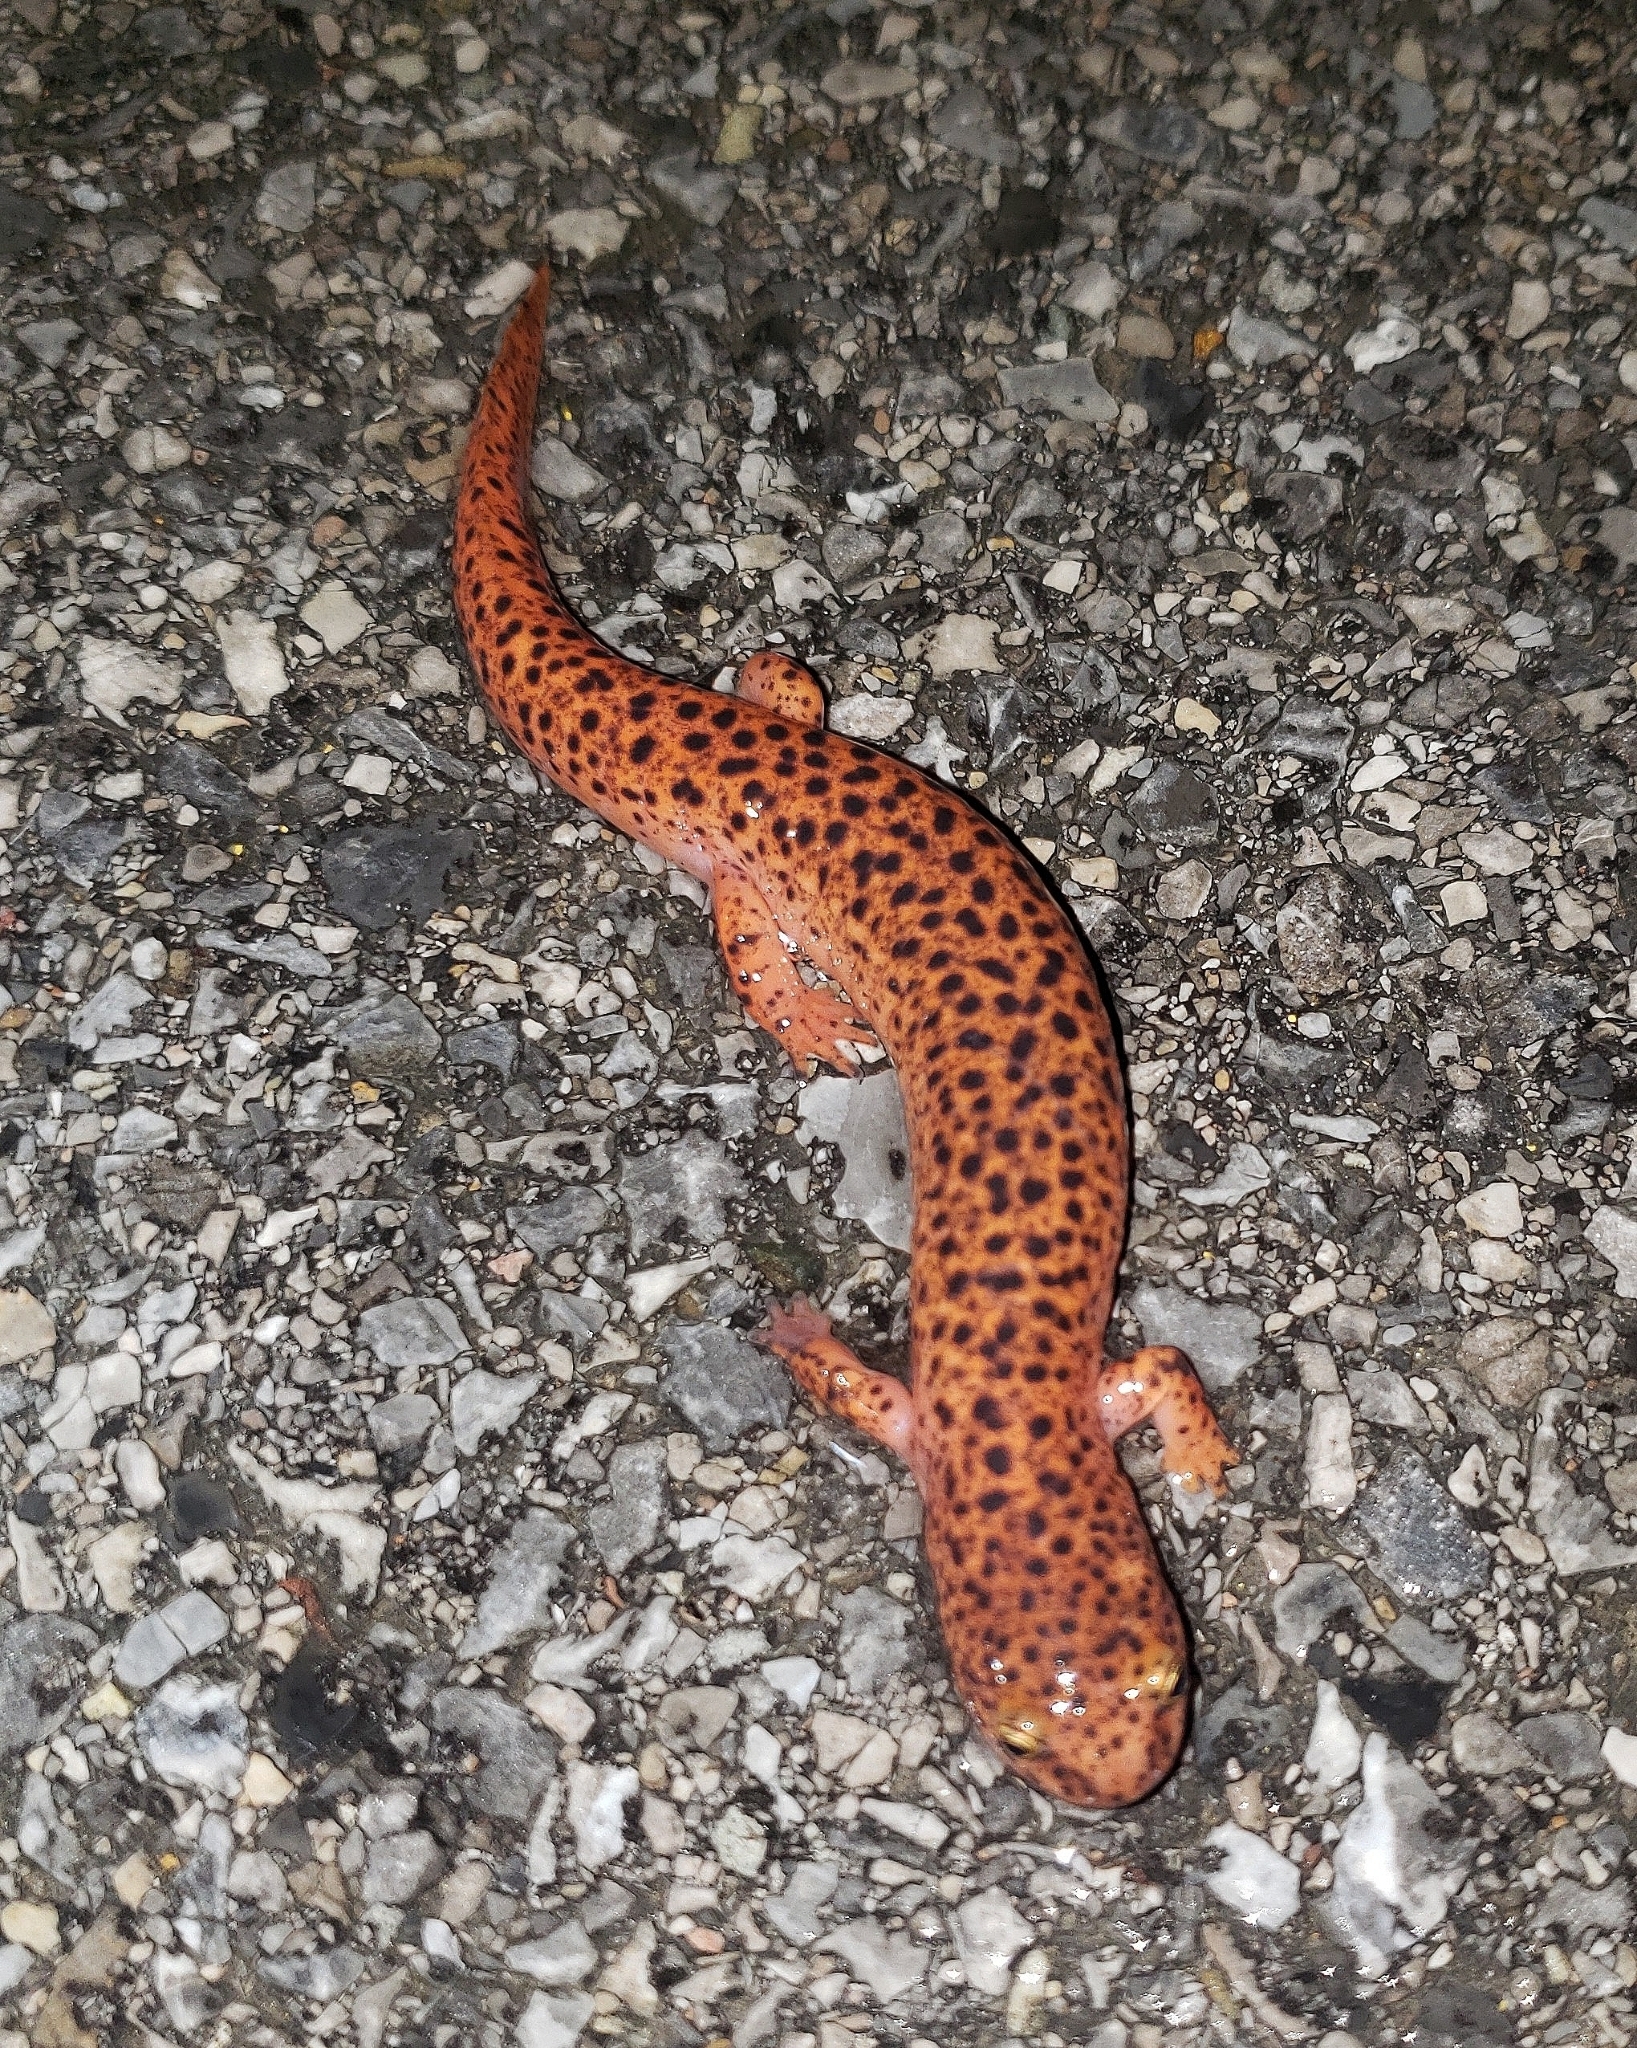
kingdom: Animalia
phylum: Chordata
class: Amphibia
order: Caudata
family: Plethodontidae
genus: Pseudotriton
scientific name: Pseudotriton ruber
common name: Red salamander
